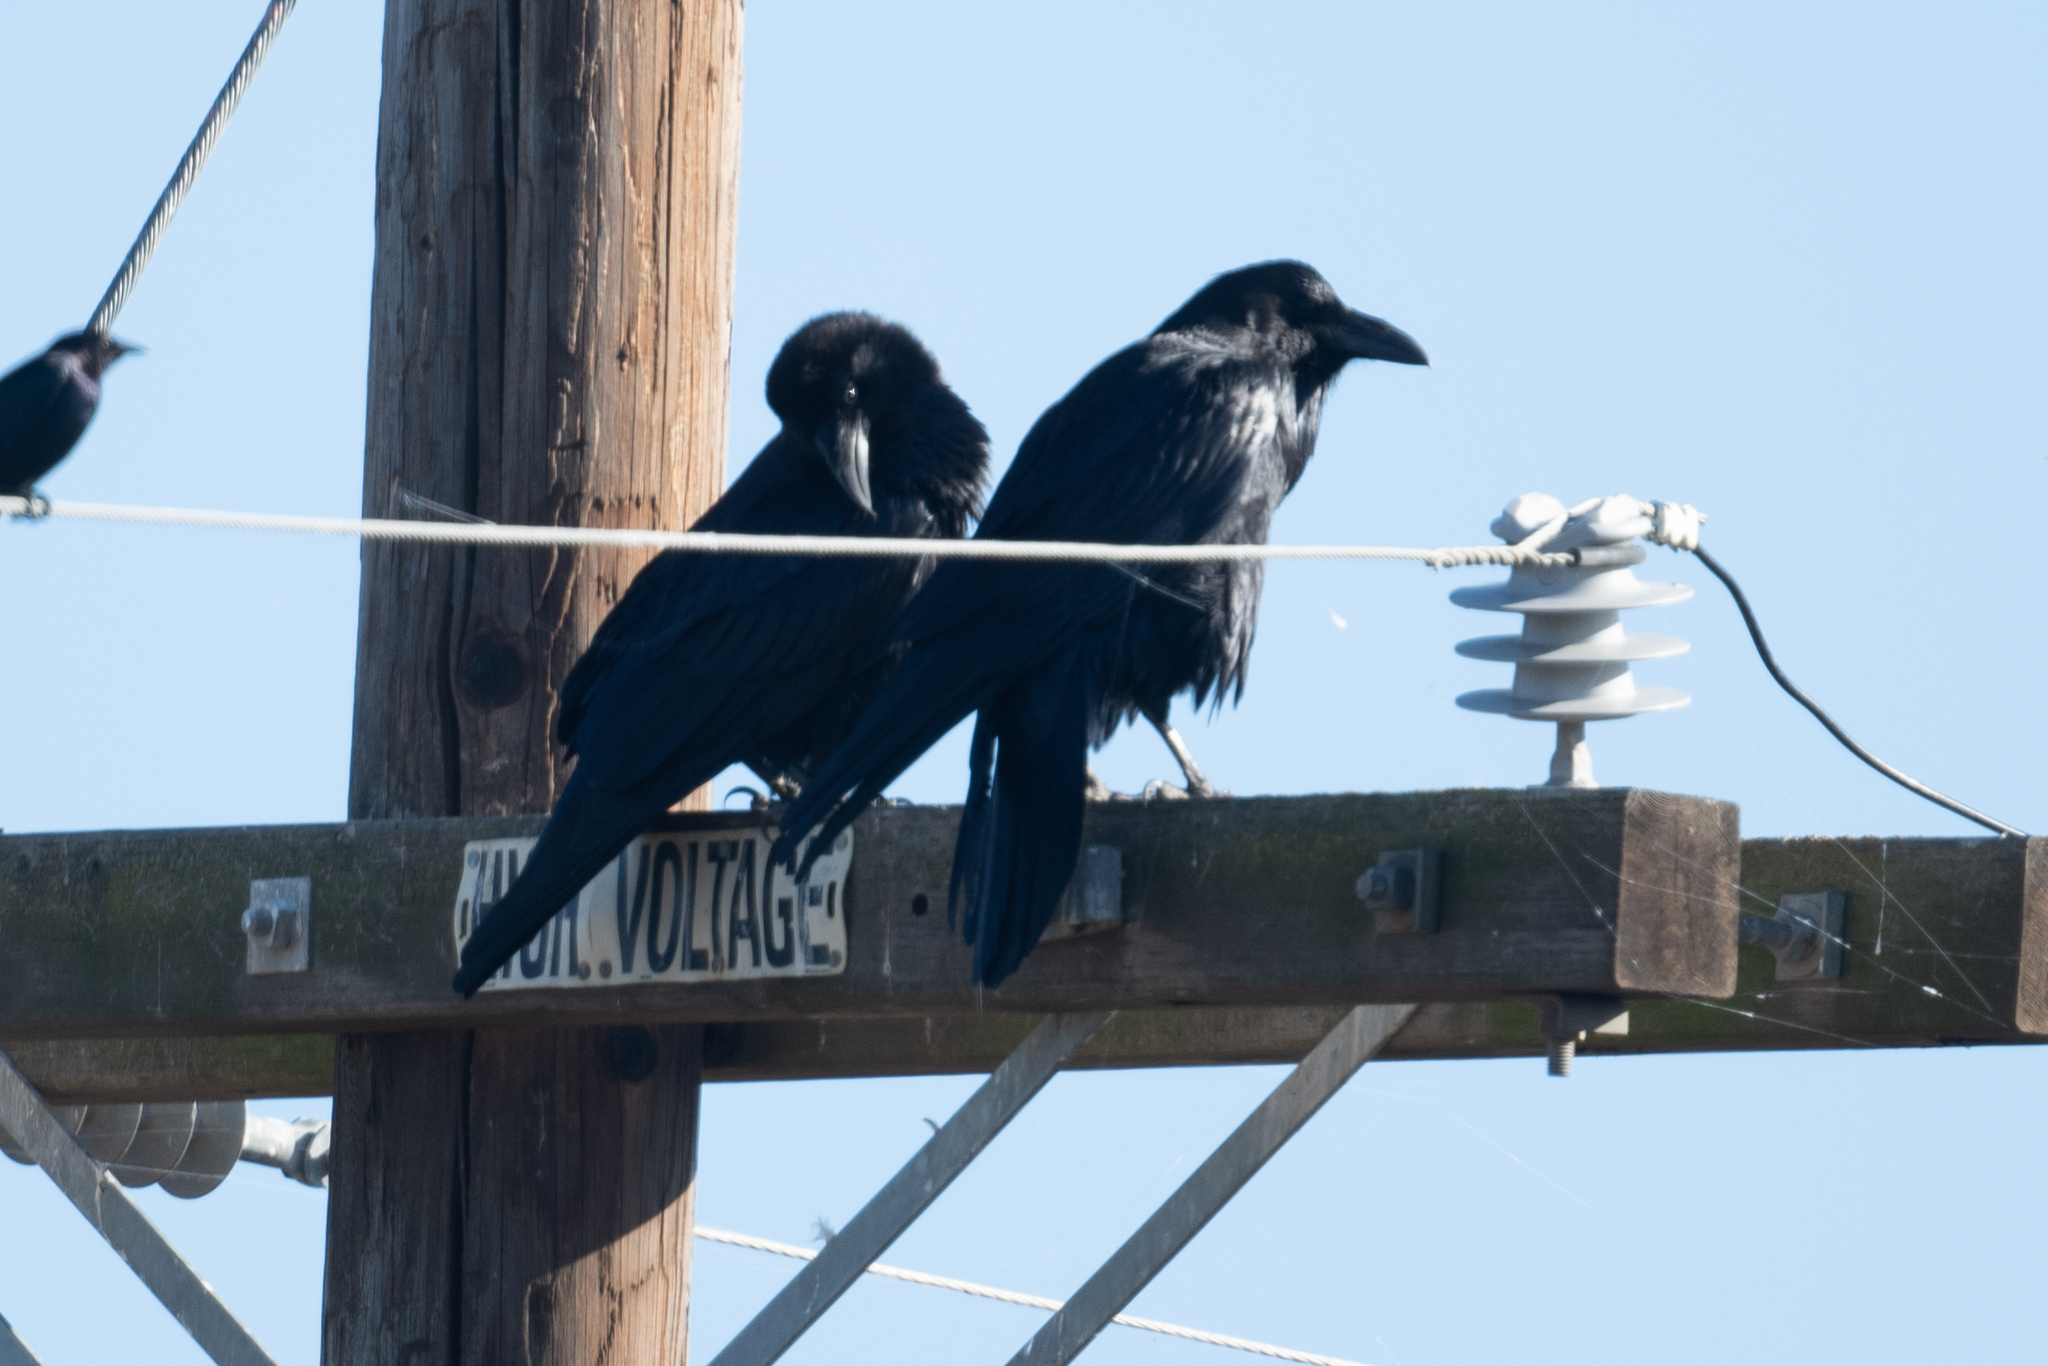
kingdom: Animalia
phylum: Chordata
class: Aves
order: Passeriformes
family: Corvidae
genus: Corvus
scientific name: Corvus corax
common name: Common raven
